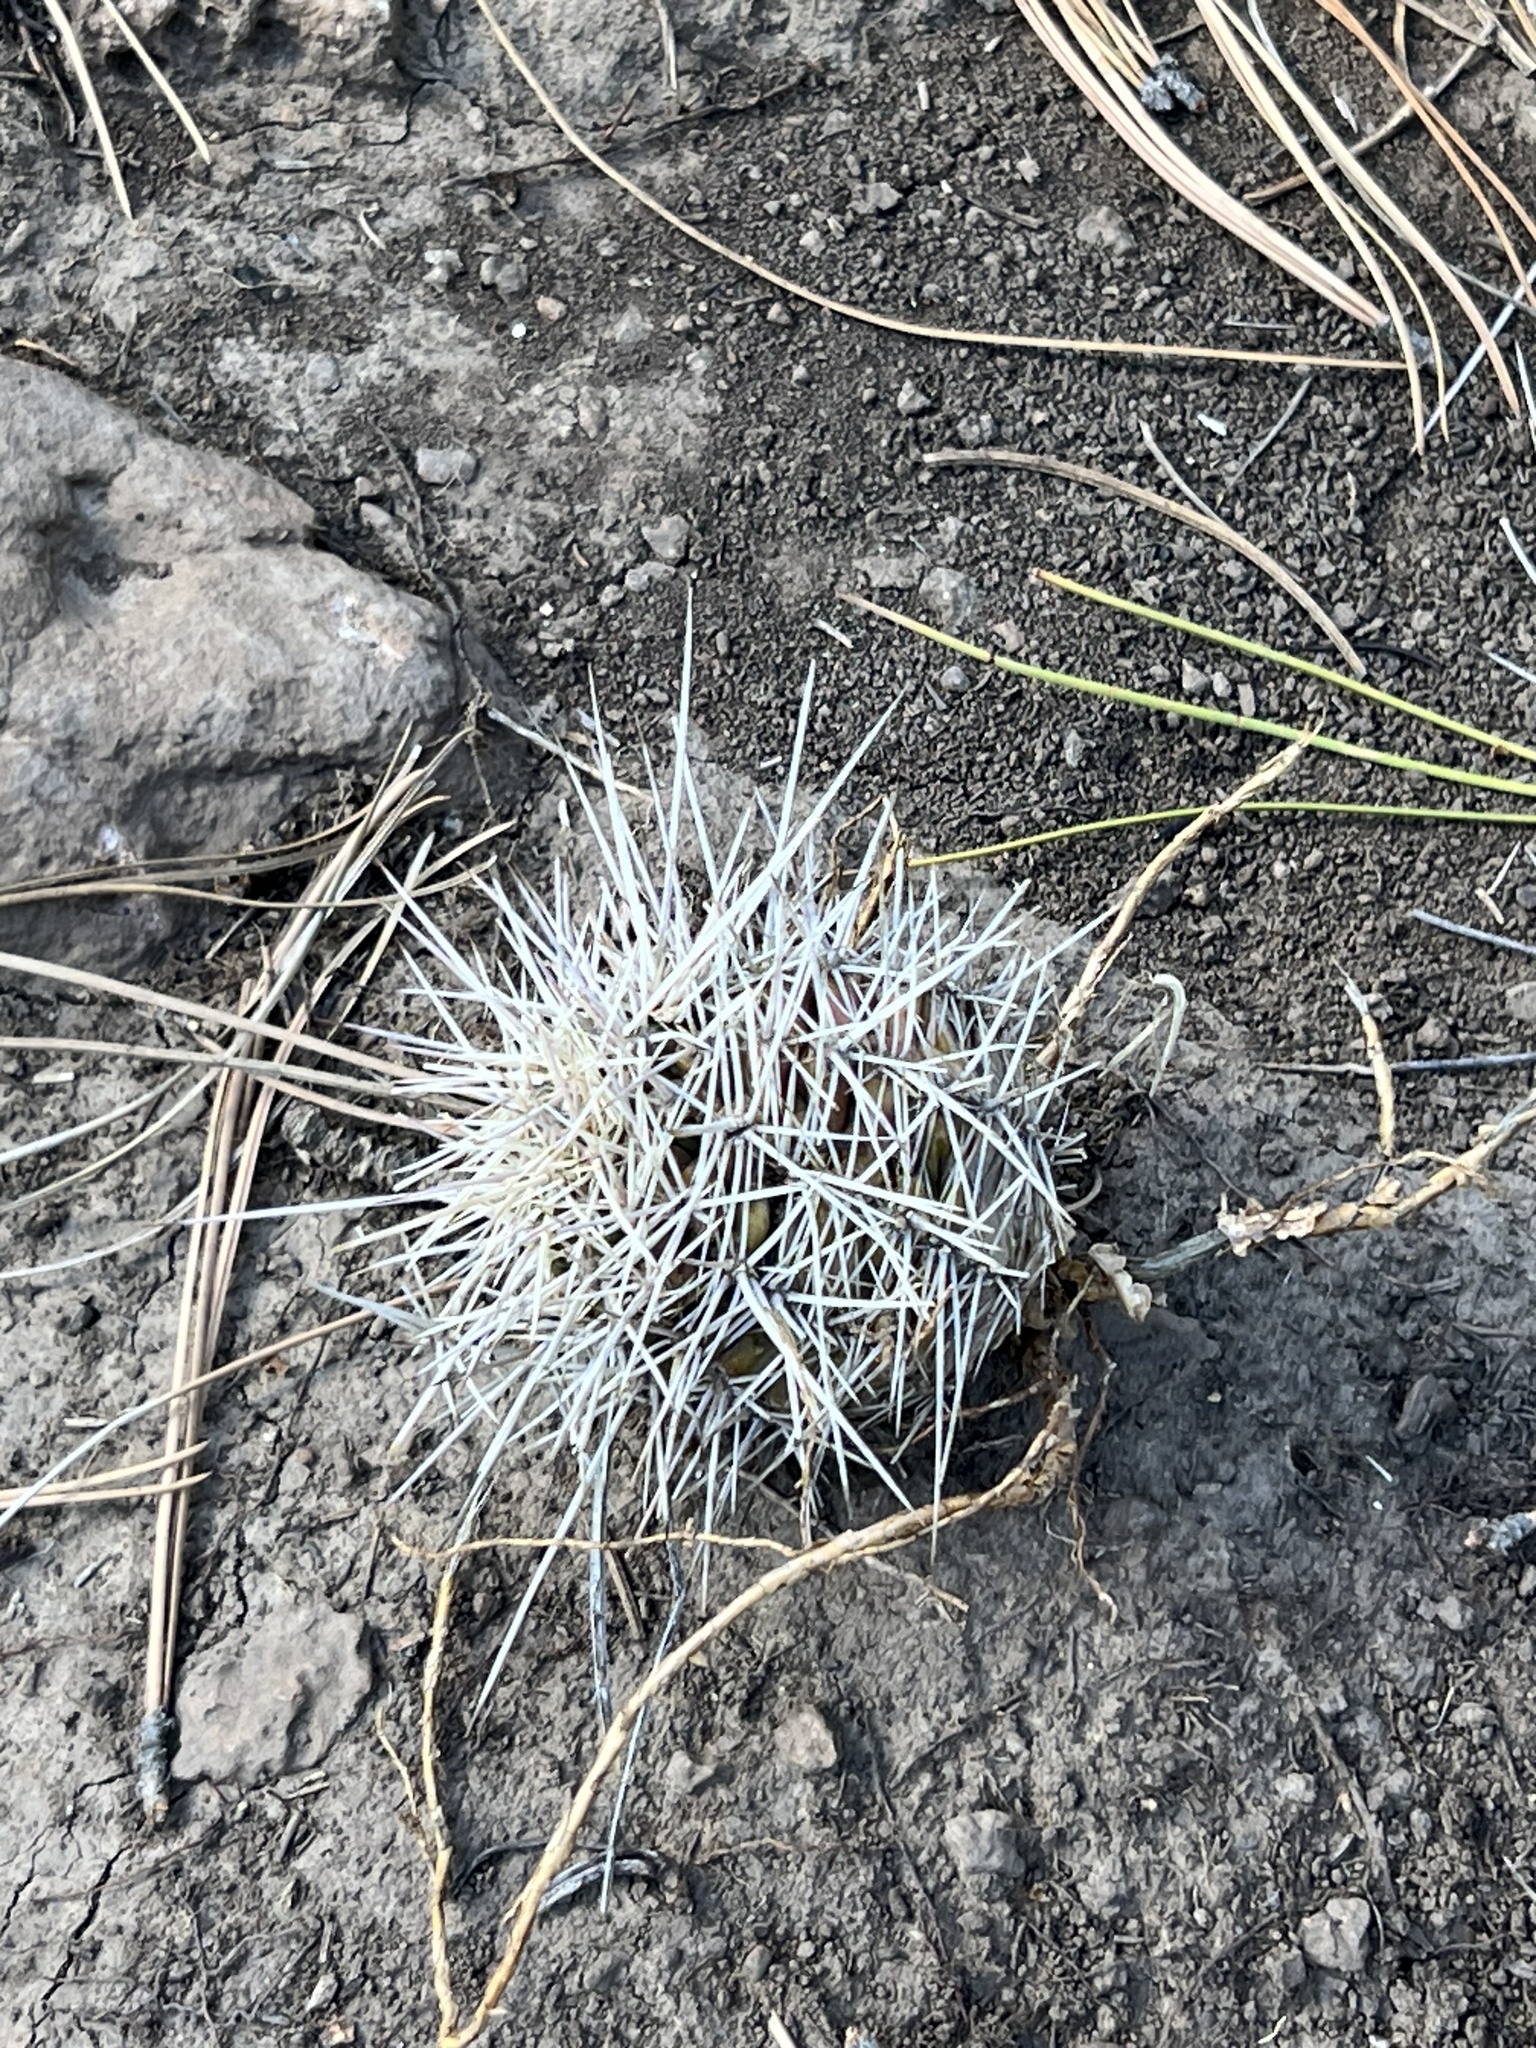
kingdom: Plantae
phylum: Tracheophyta
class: Magnoliopsida
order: Caryophyllales
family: Cactaceae
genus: Echinocereus
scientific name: Echinocereus bakeri
